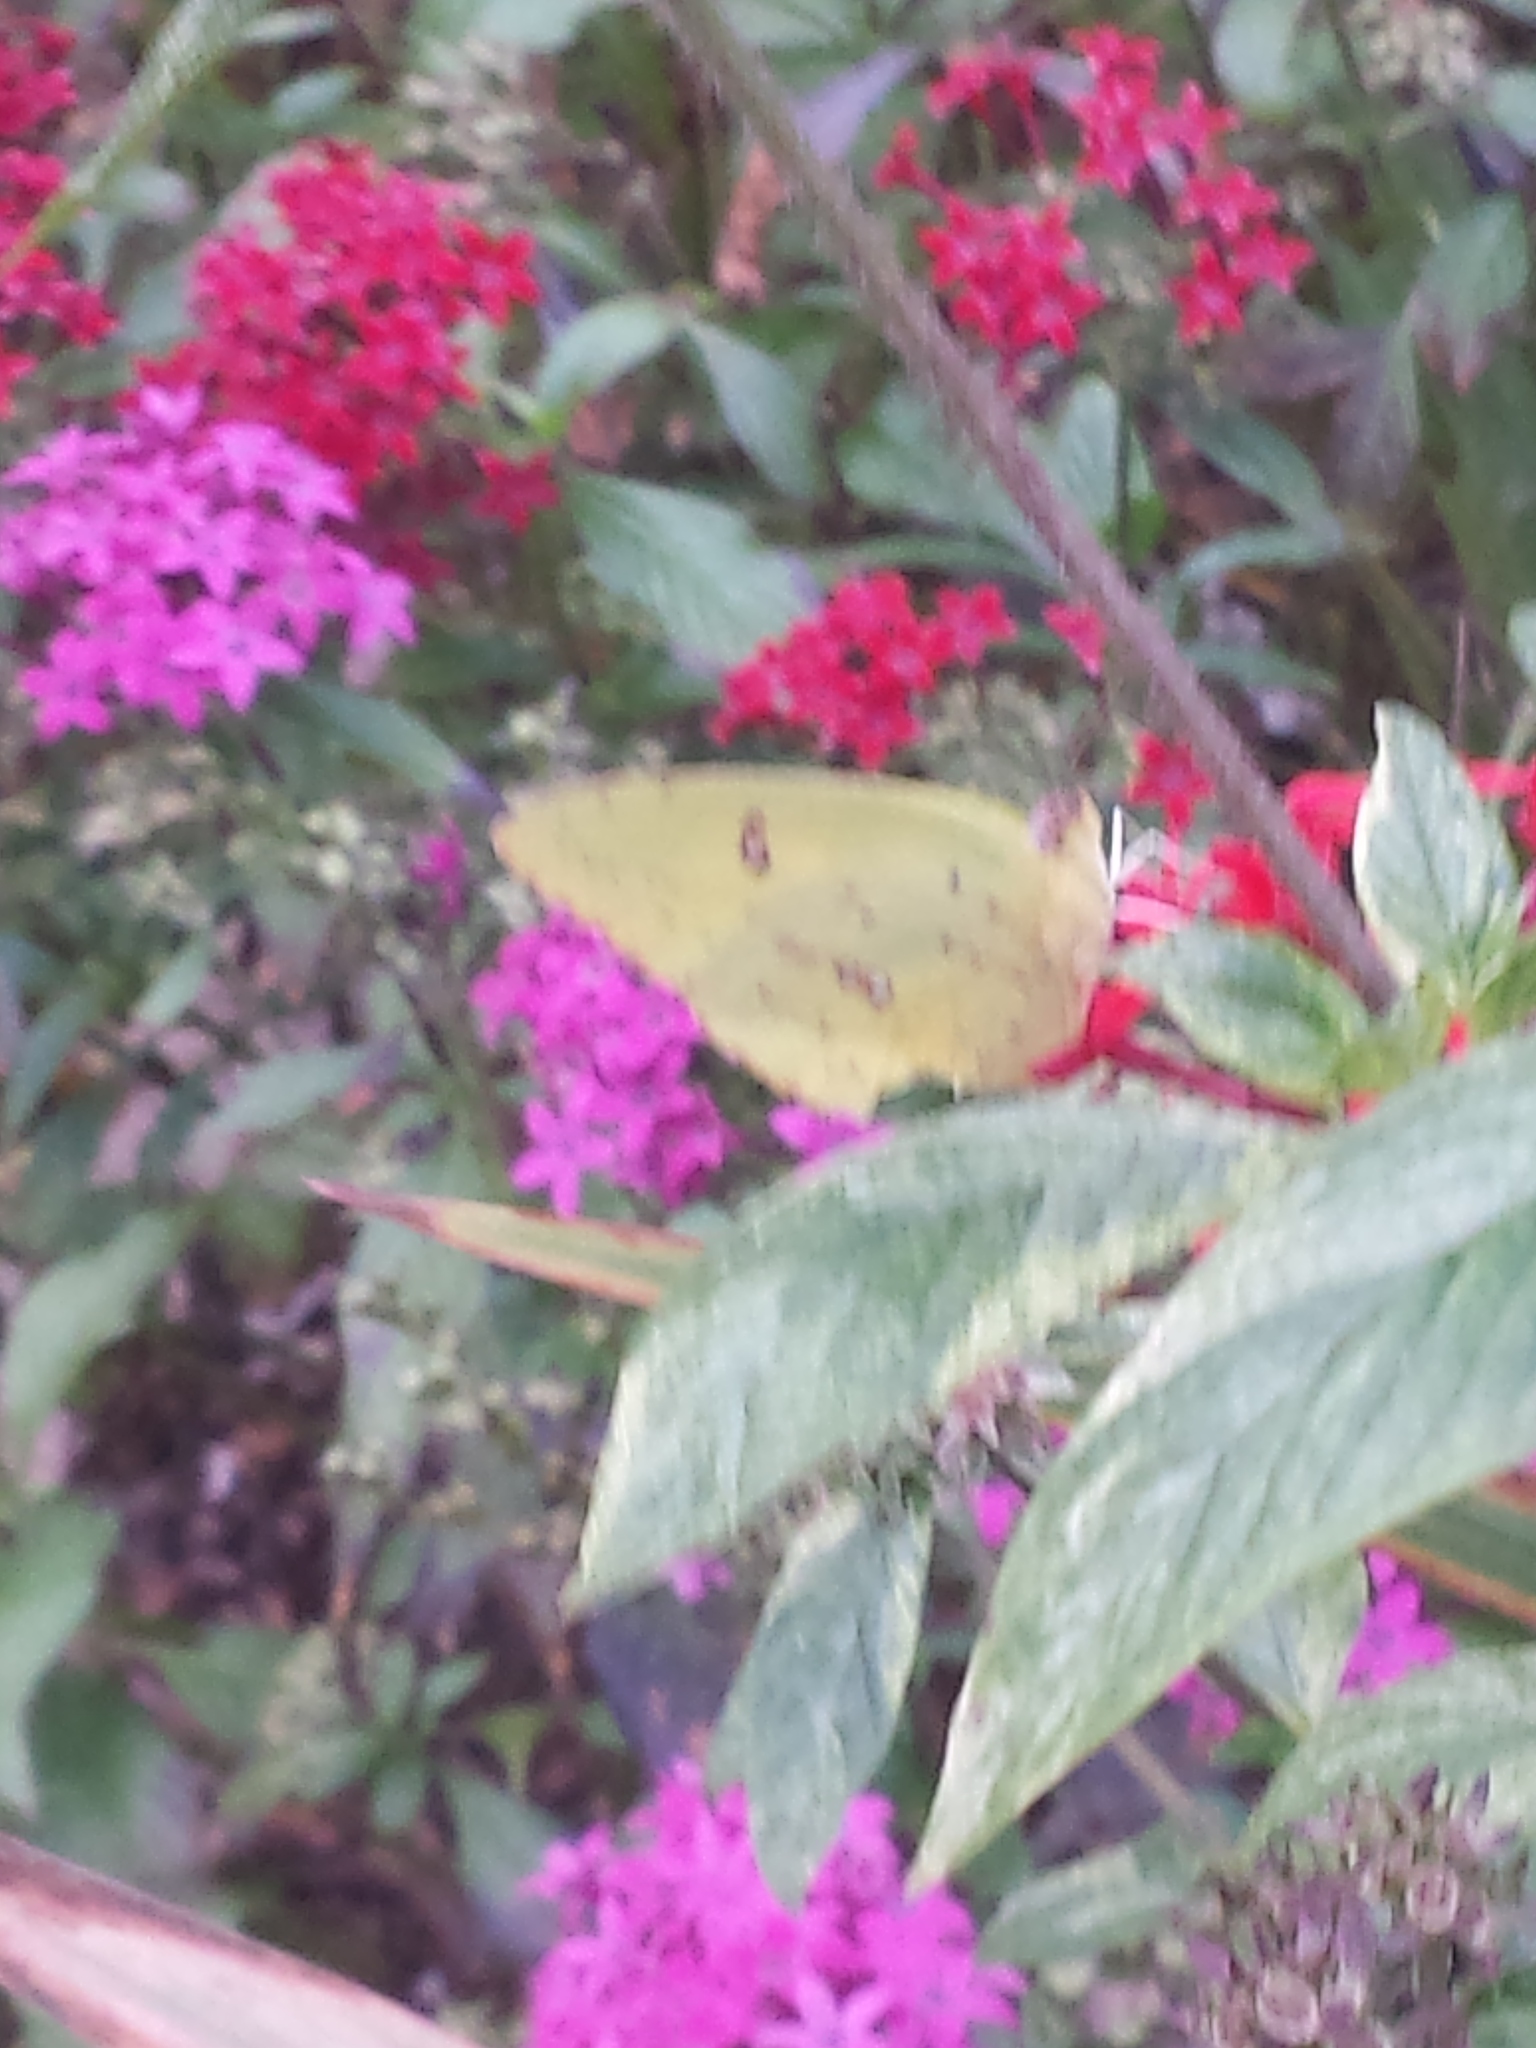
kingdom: Animalia
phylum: Arthropoda
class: Insecta
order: Lepidoptera
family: Pieridae
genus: Phoebis
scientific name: Phoebis sennae
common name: Cloudless sulphur
